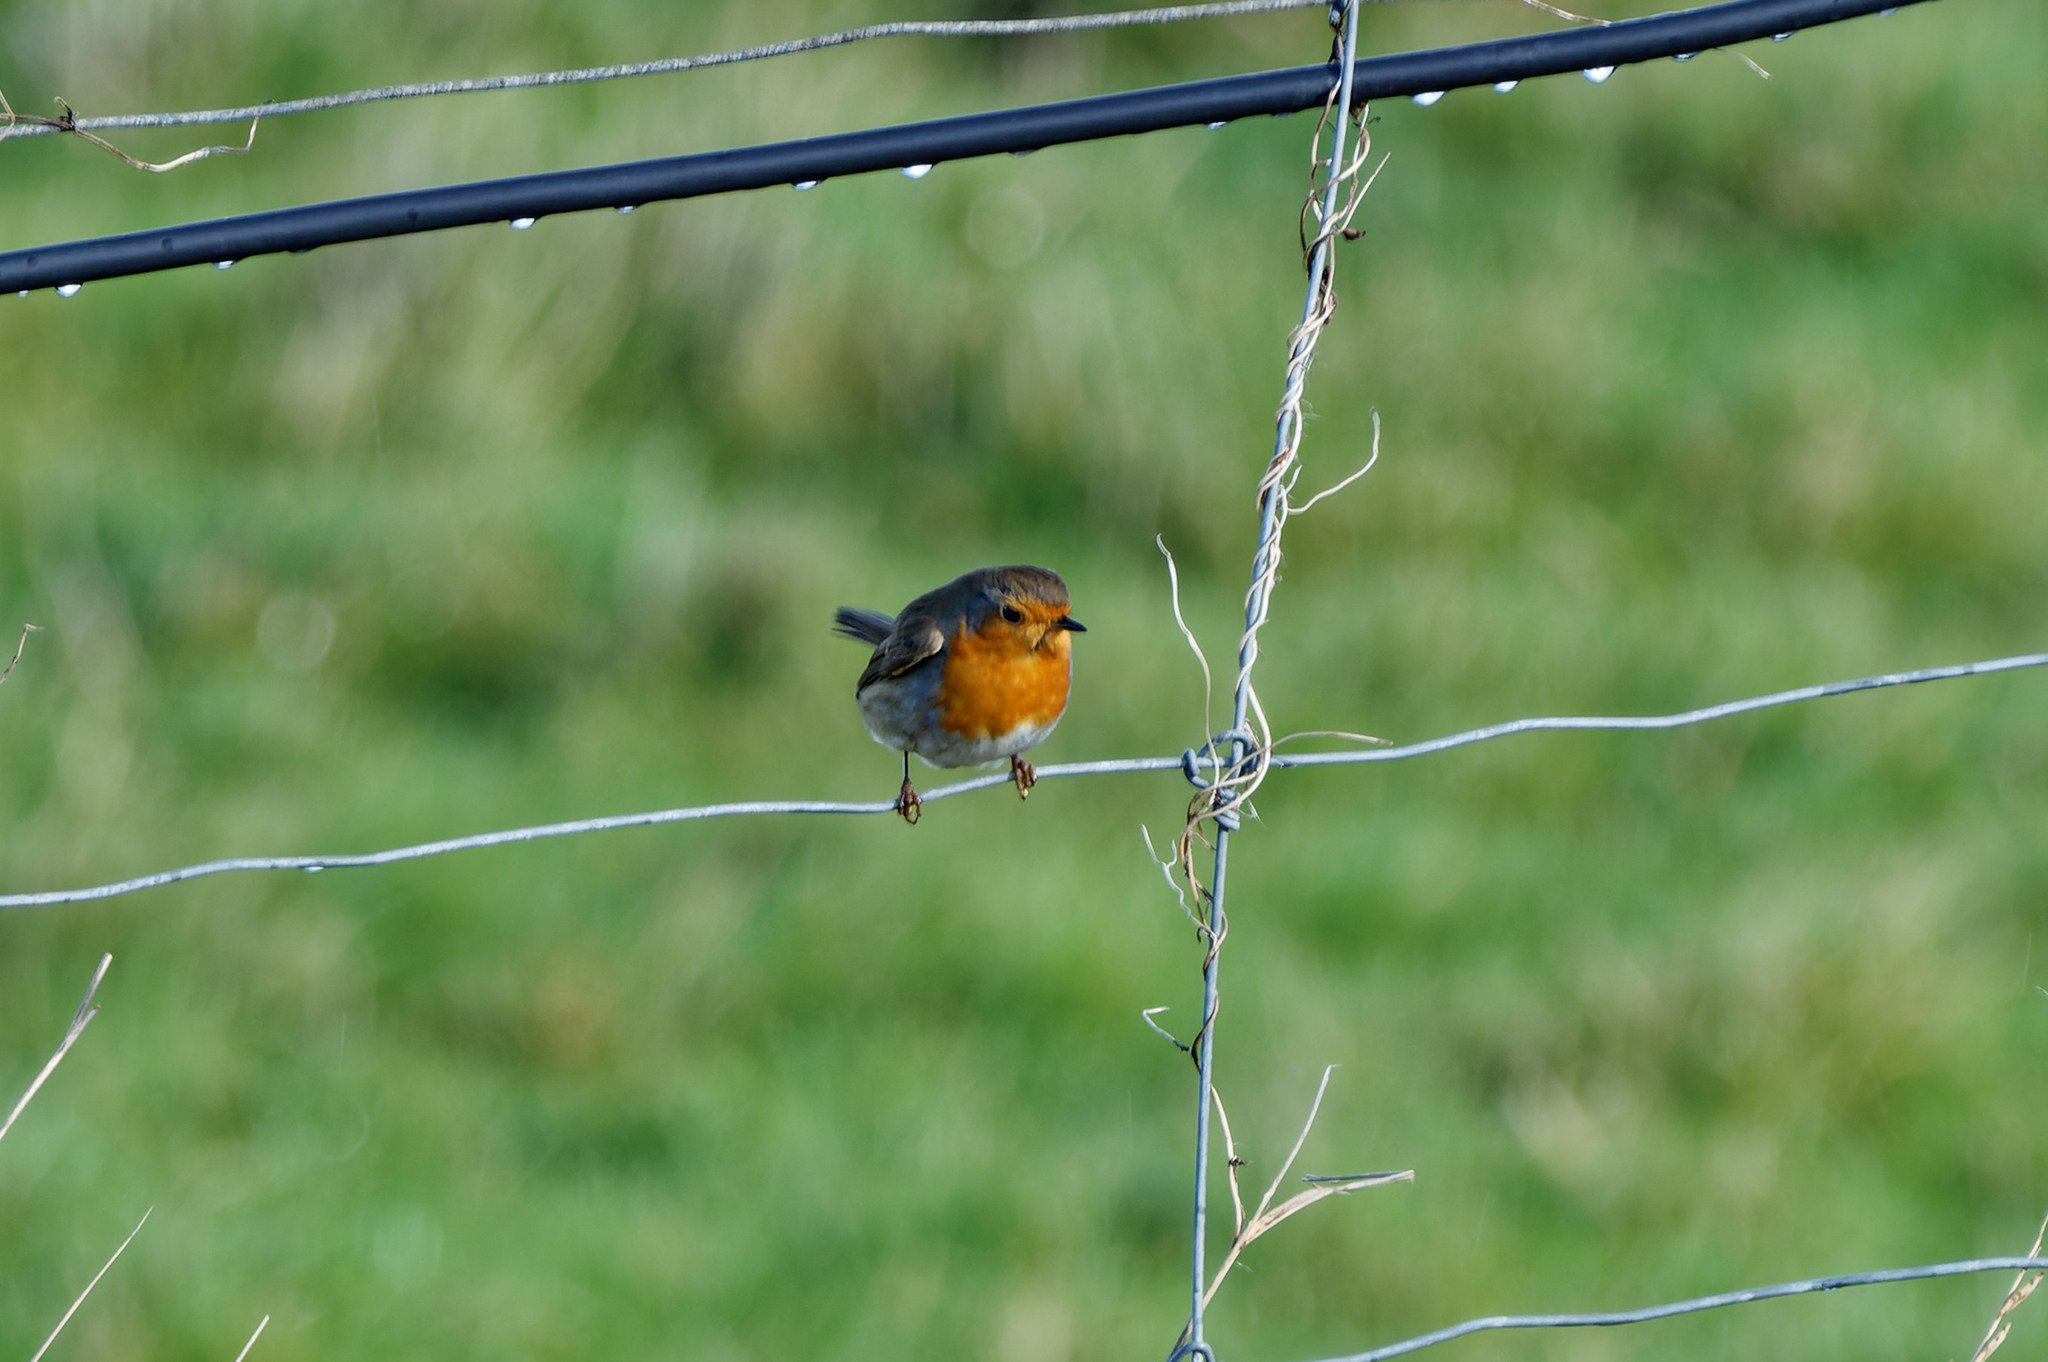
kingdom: Animalia
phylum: Chordata
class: Aves
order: Passeriformes
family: Muscicapidae
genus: Erithacus
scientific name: Erithacus rubecula
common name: European robin
